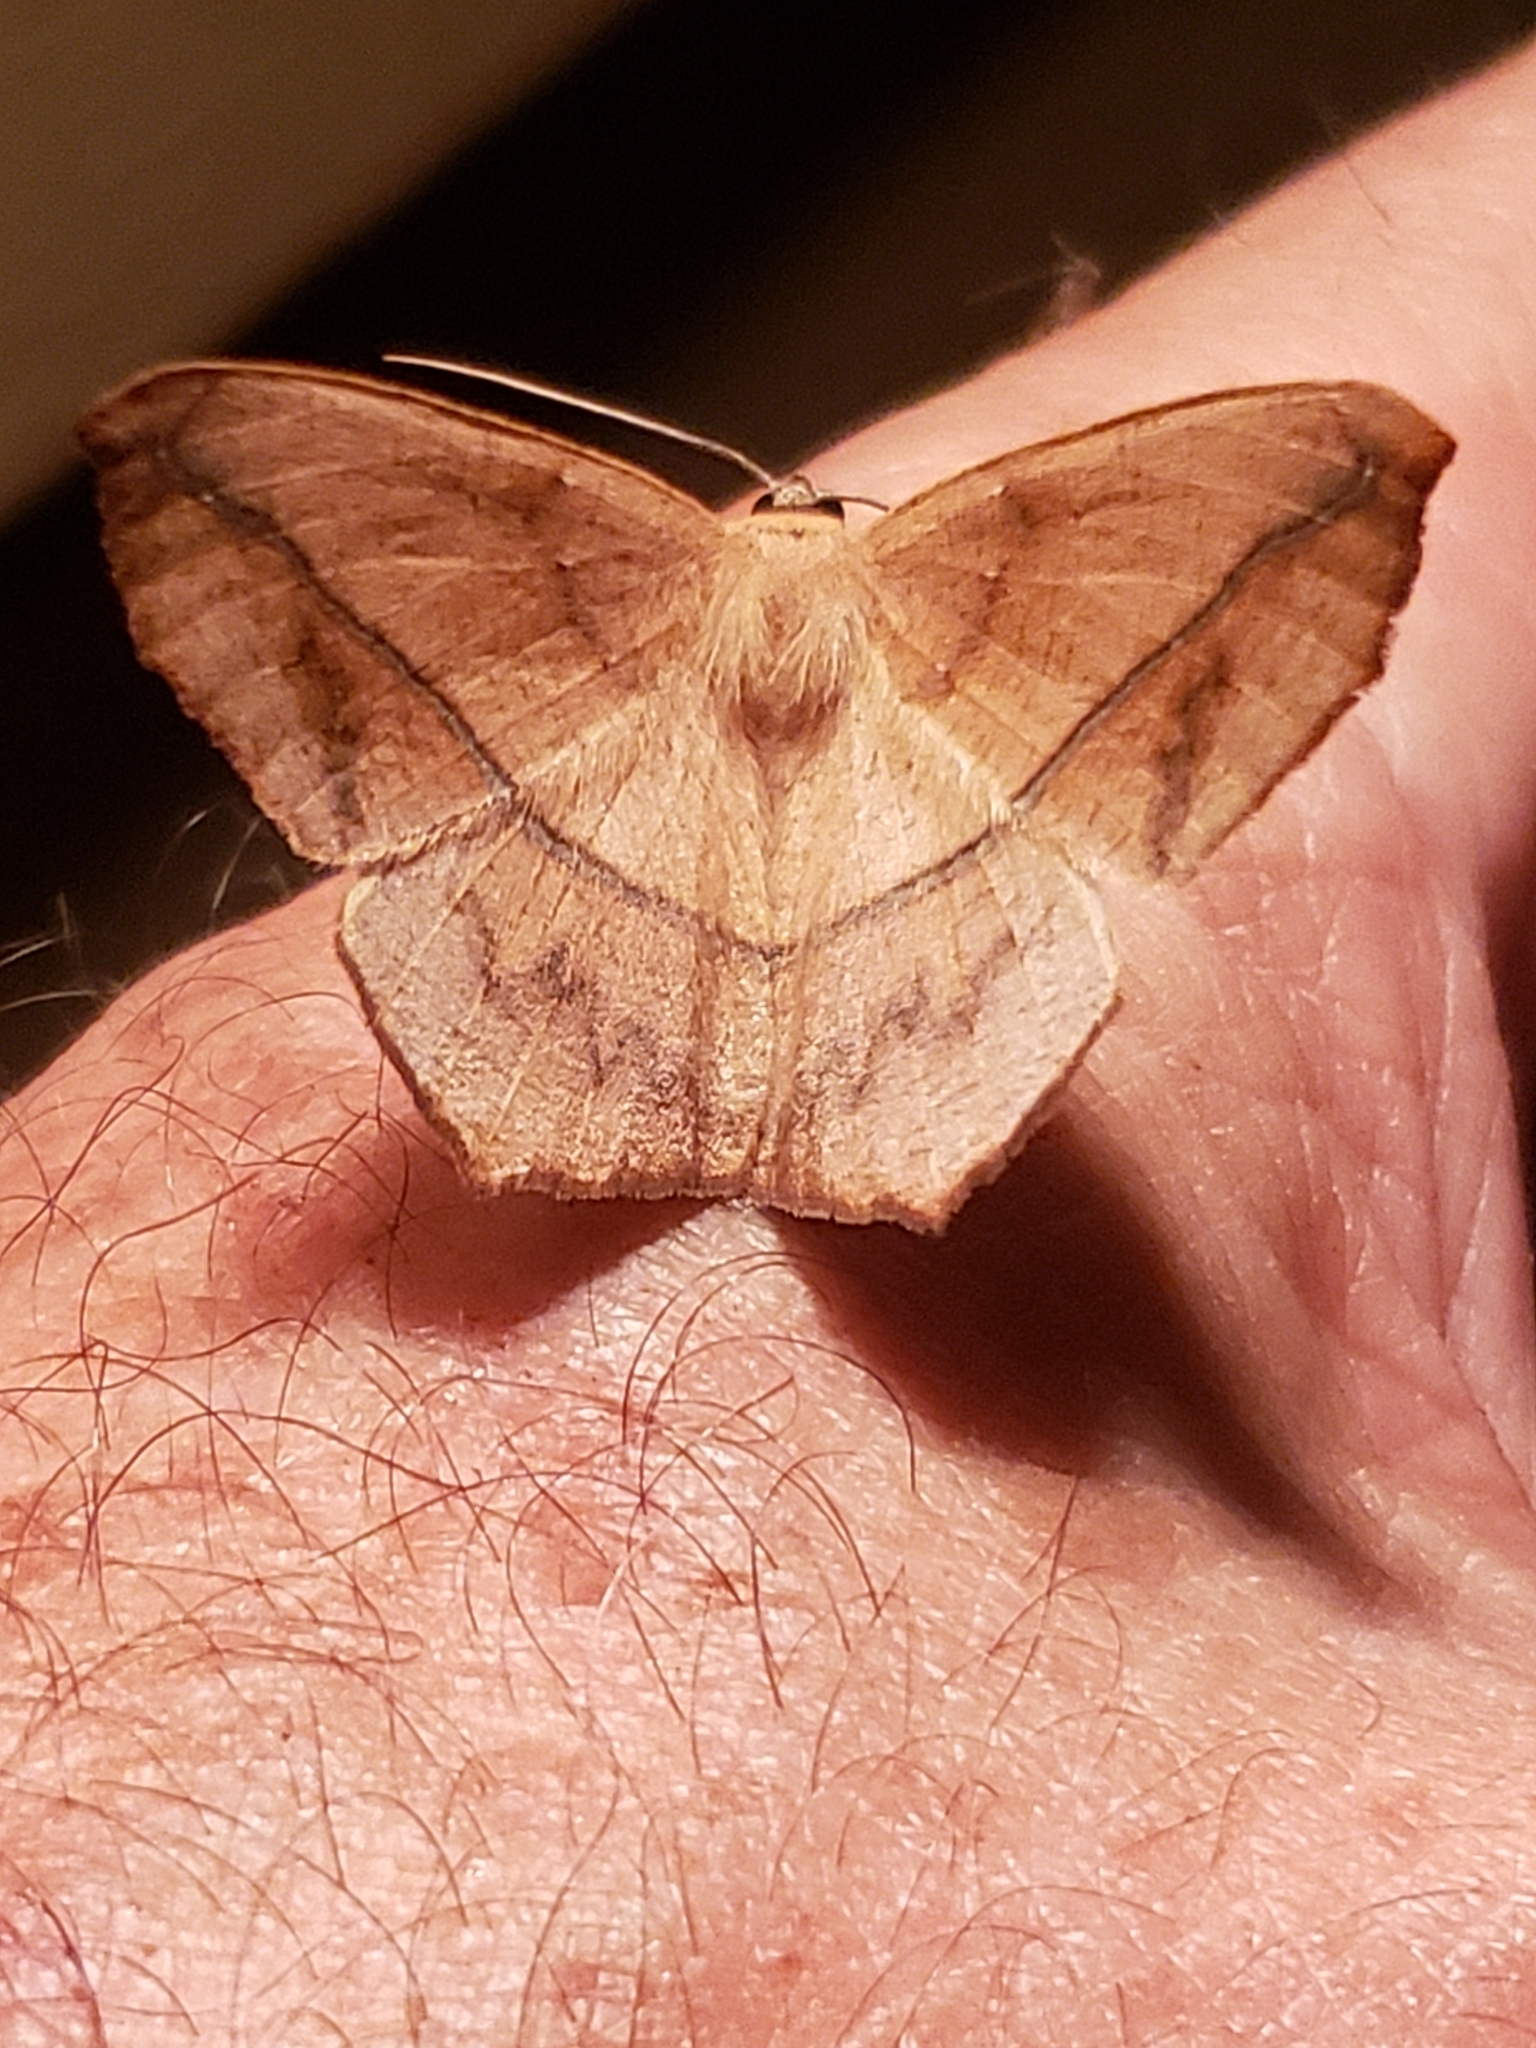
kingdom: Animalia
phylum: Arthropoda
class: Insecta
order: Lepidoptera
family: Geometridae
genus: Prochoerodes
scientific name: Prochoerodes lineola
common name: Large maple spanworm
